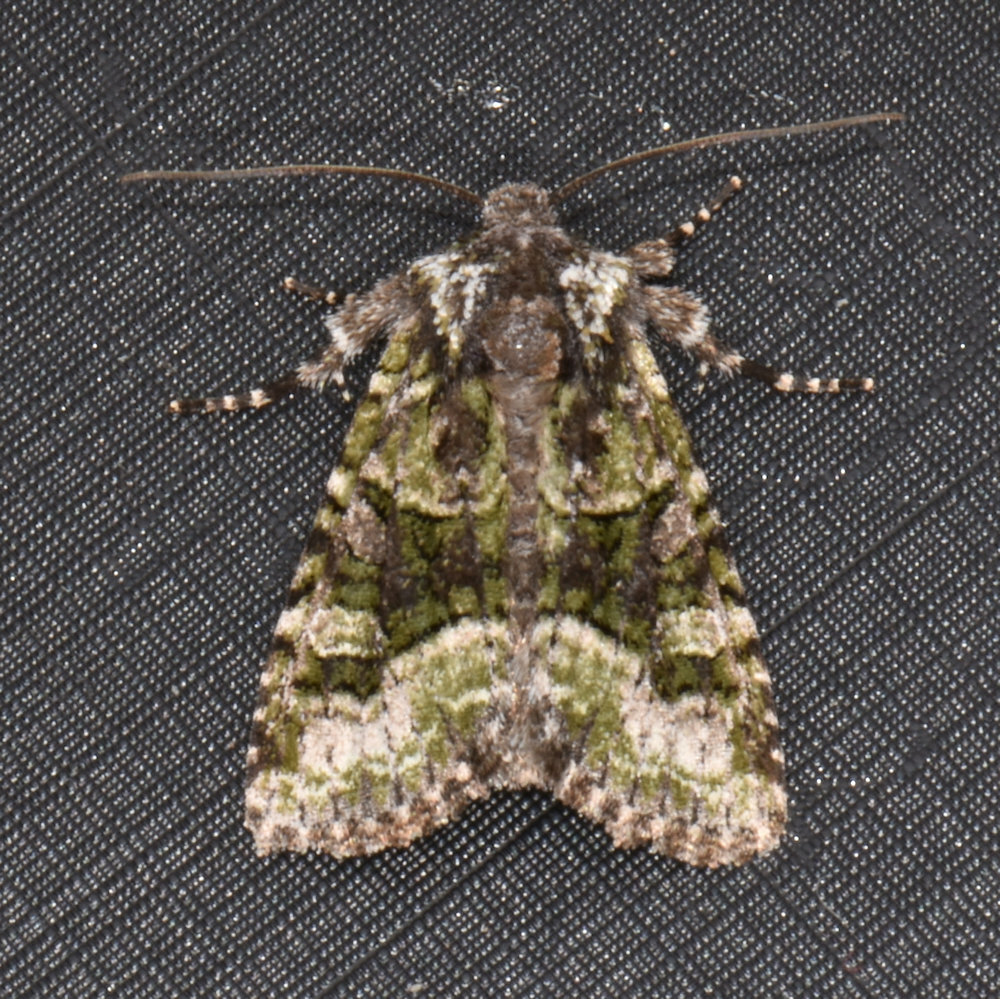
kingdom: Animalia
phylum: Arthropoda
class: Insecta
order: Lepidoptera
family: Noctuidae
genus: Lacinipolia
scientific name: Lacinipolia olivacea
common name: Olive arches moth
